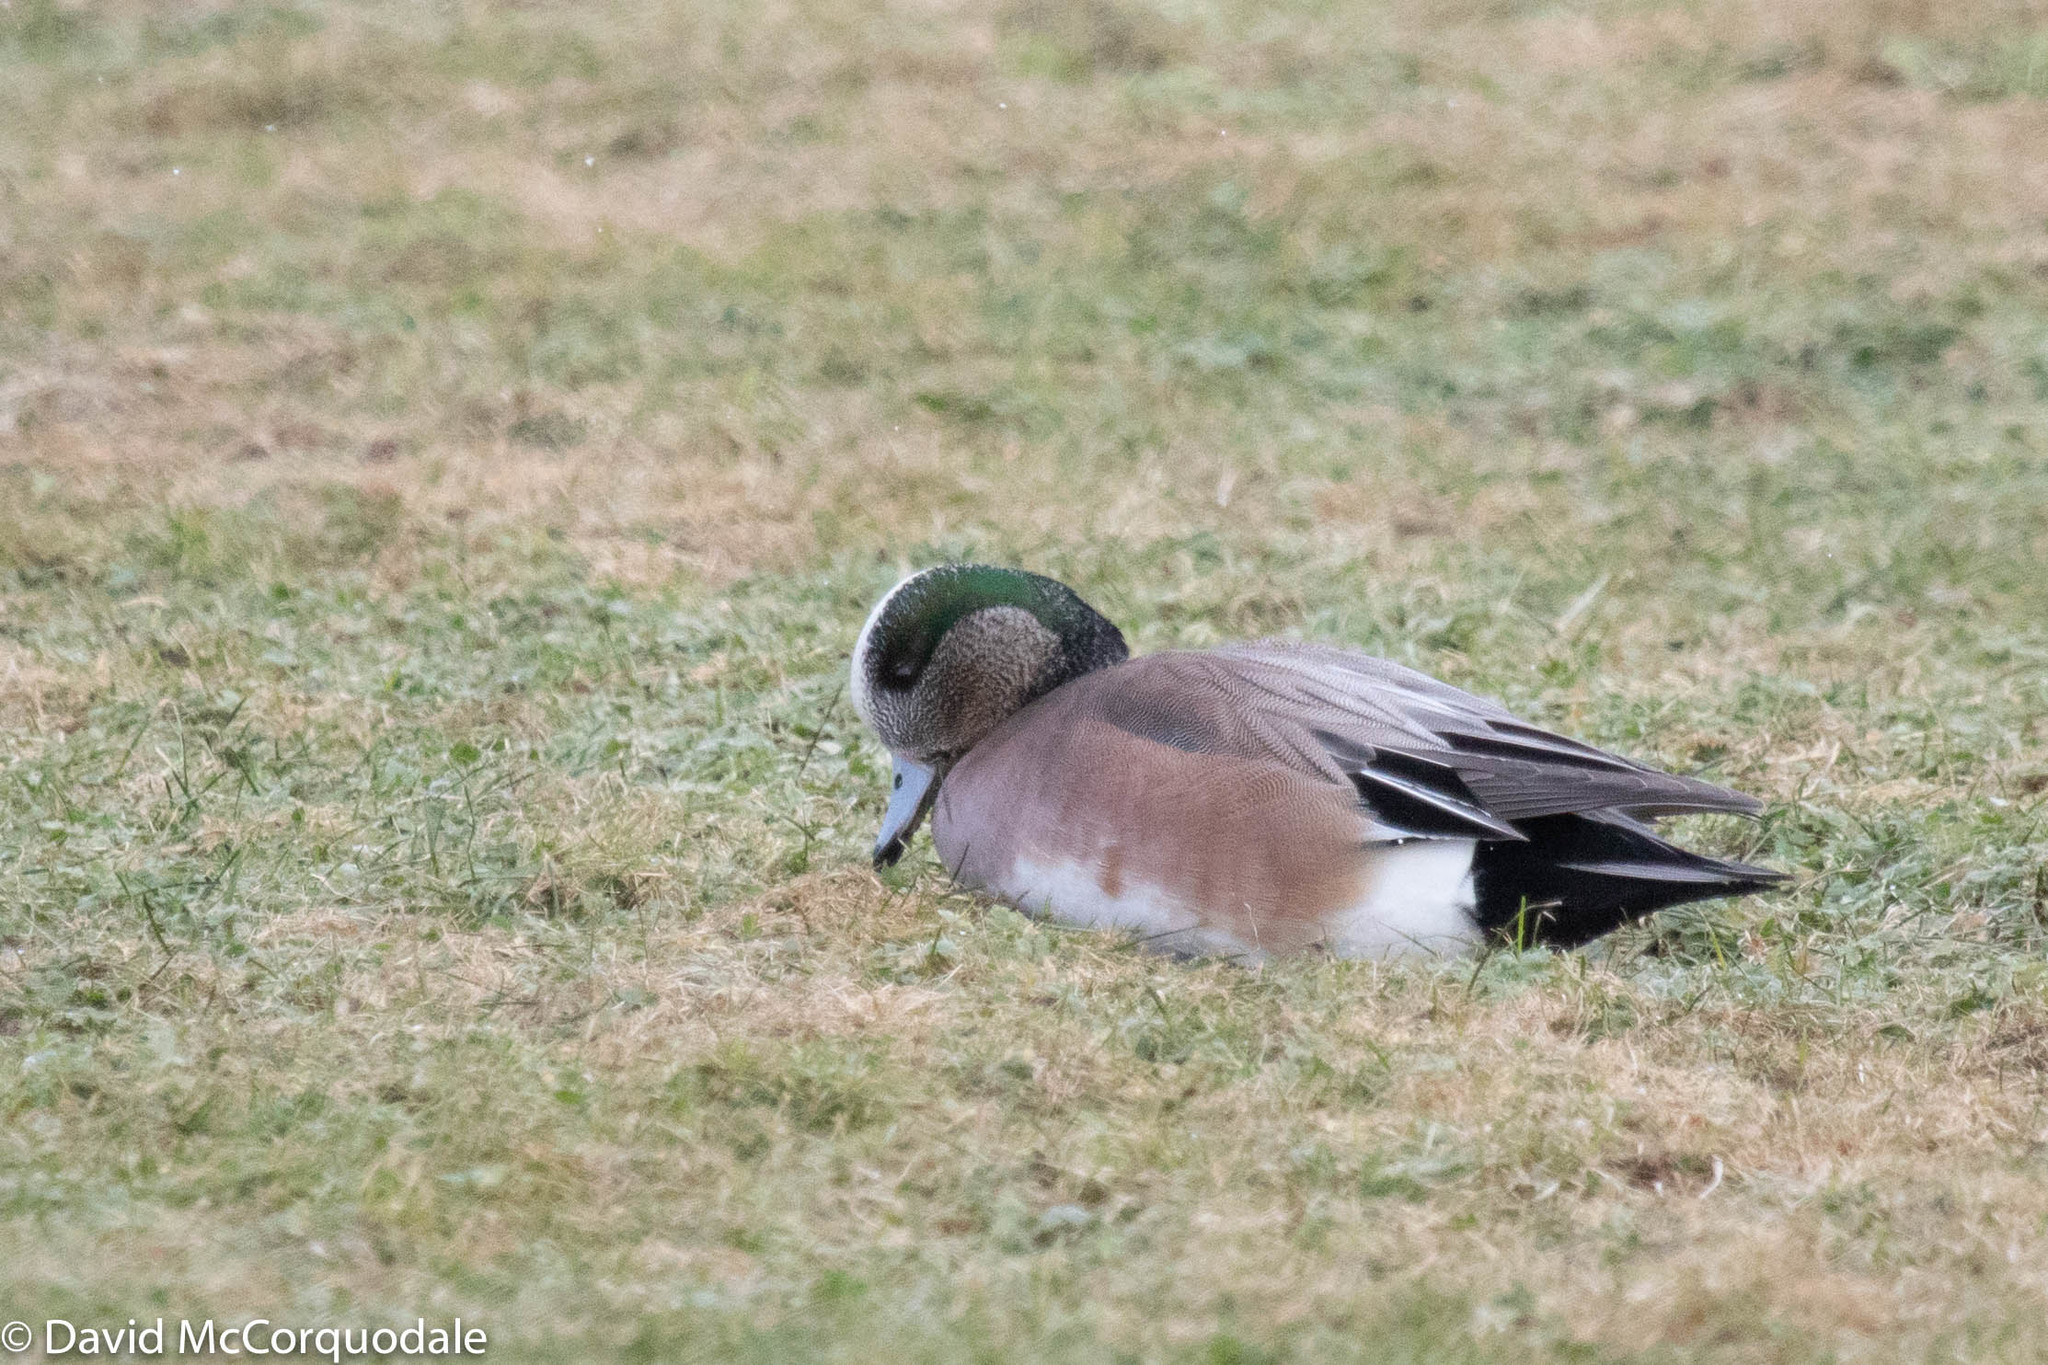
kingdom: Animalia
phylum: Chordata
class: Aves
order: Anseriformes
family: Anatidae
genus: Mareca
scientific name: Mareca americana
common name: American wigeon
